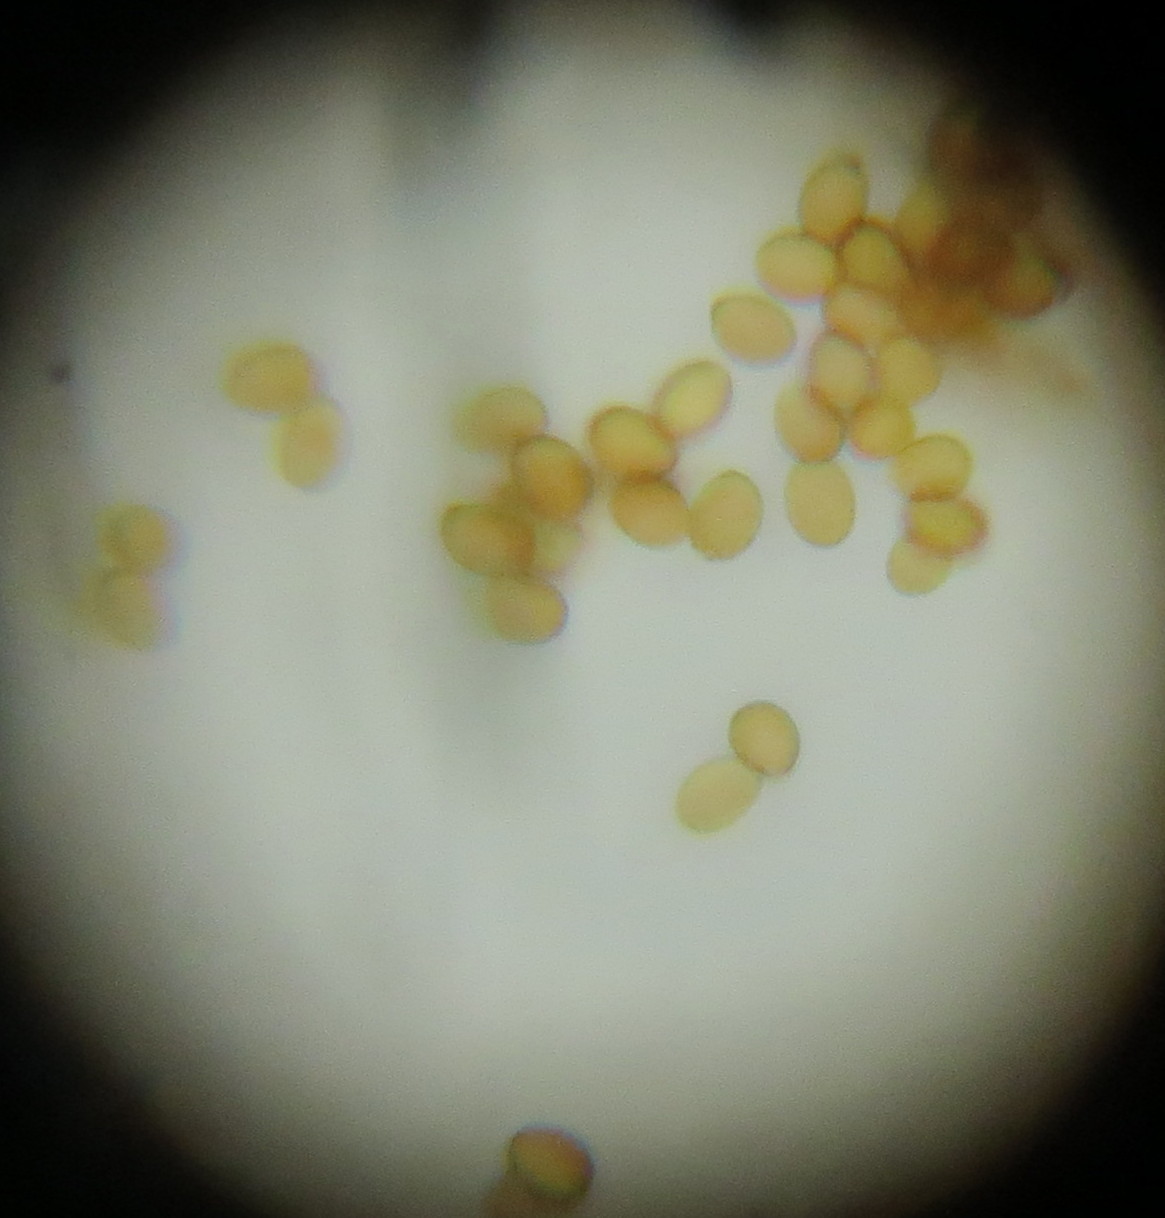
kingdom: Fungi
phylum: Basidiomycota
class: Agaricomycetes
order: Agaricales
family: Cortinariaceae
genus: Cortinarius
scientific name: Cortinarius
